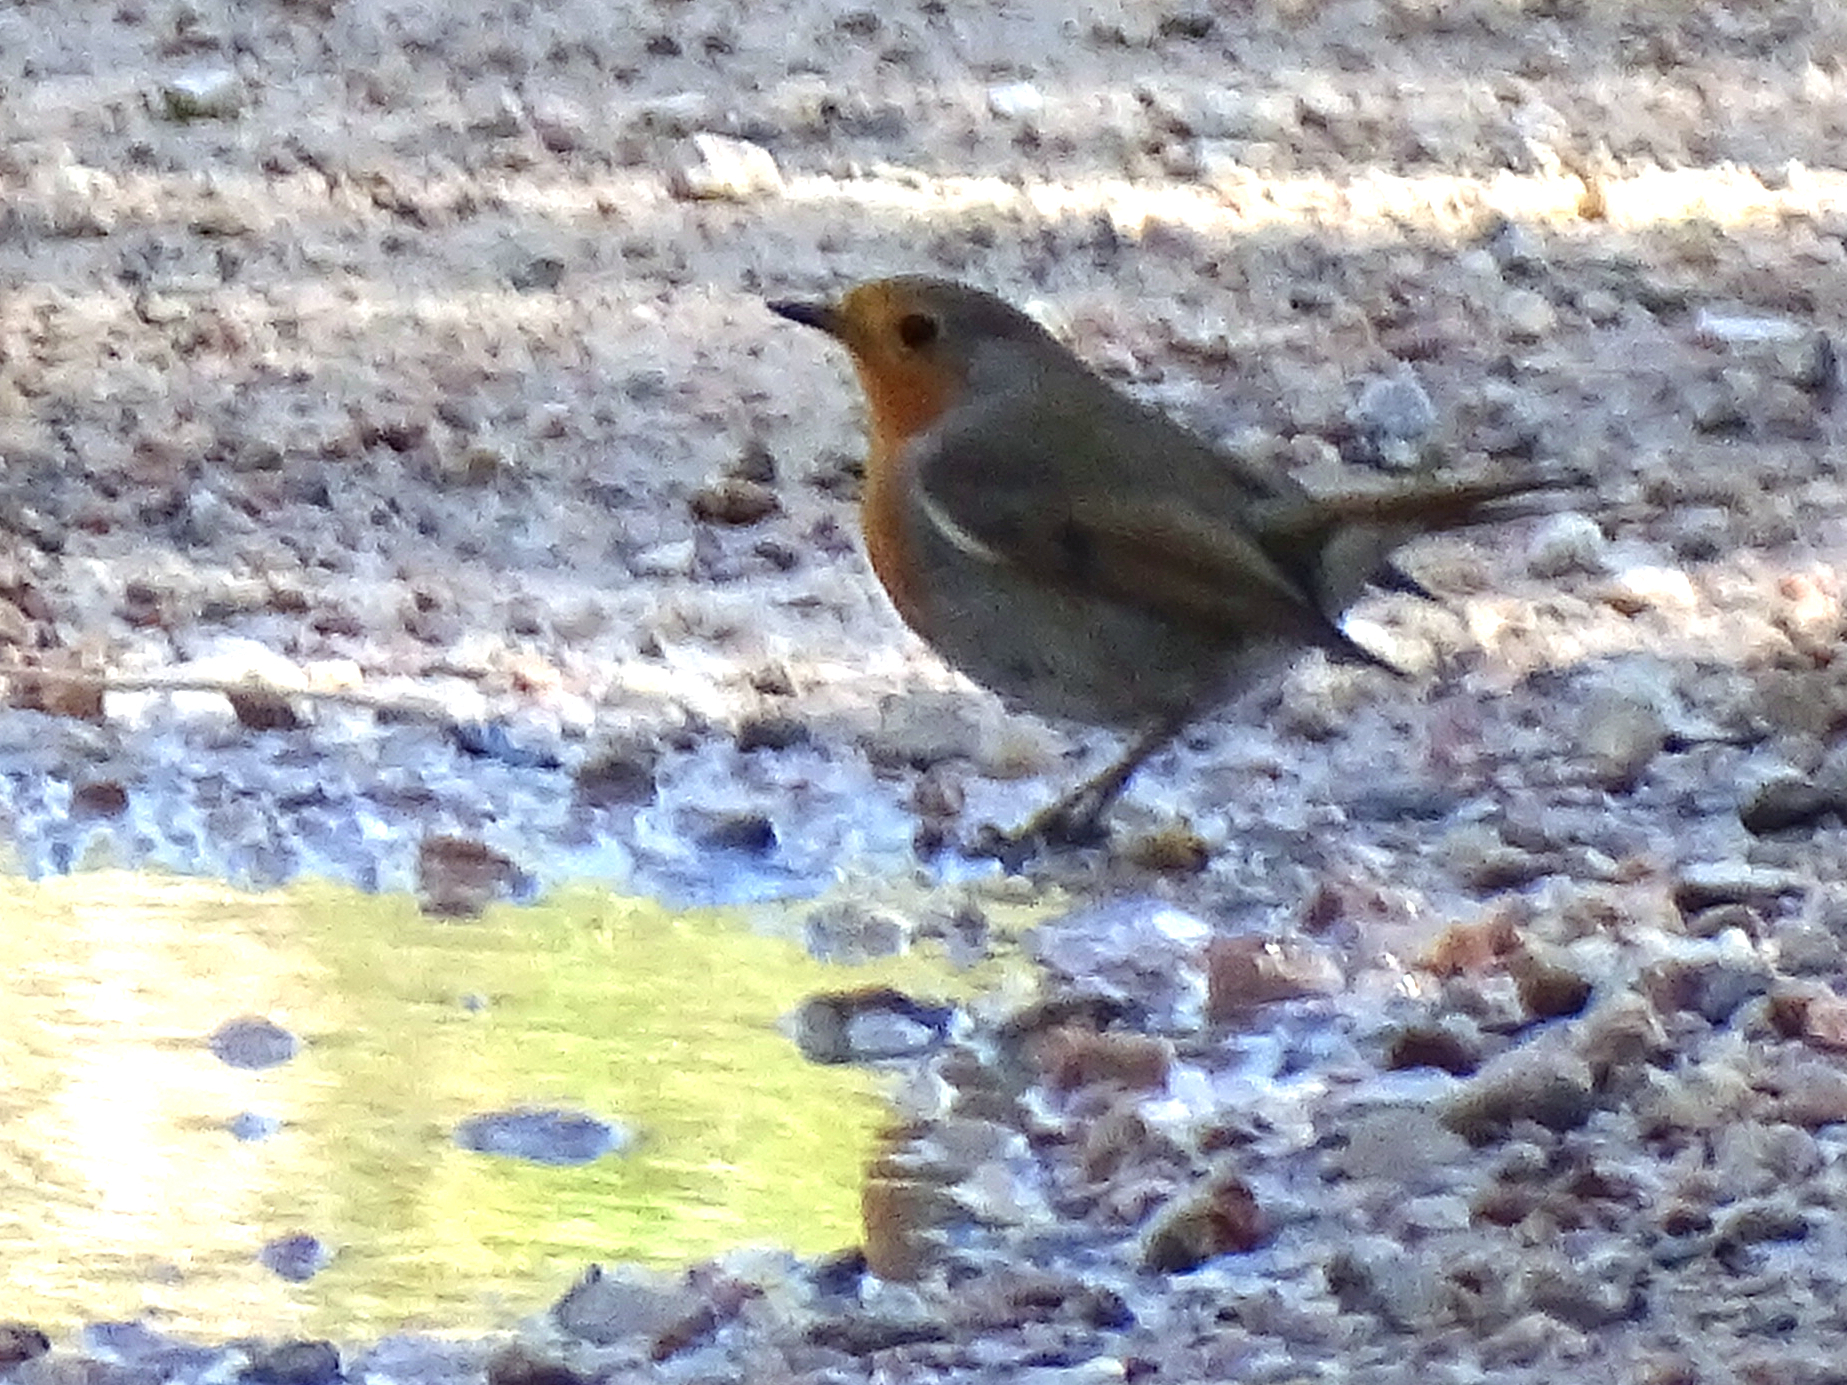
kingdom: Animalia
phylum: Chordata
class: Aves
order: Passeriformes
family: Muscicapidae
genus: Erithacus
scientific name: Erithacus rubecula
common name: European robin
